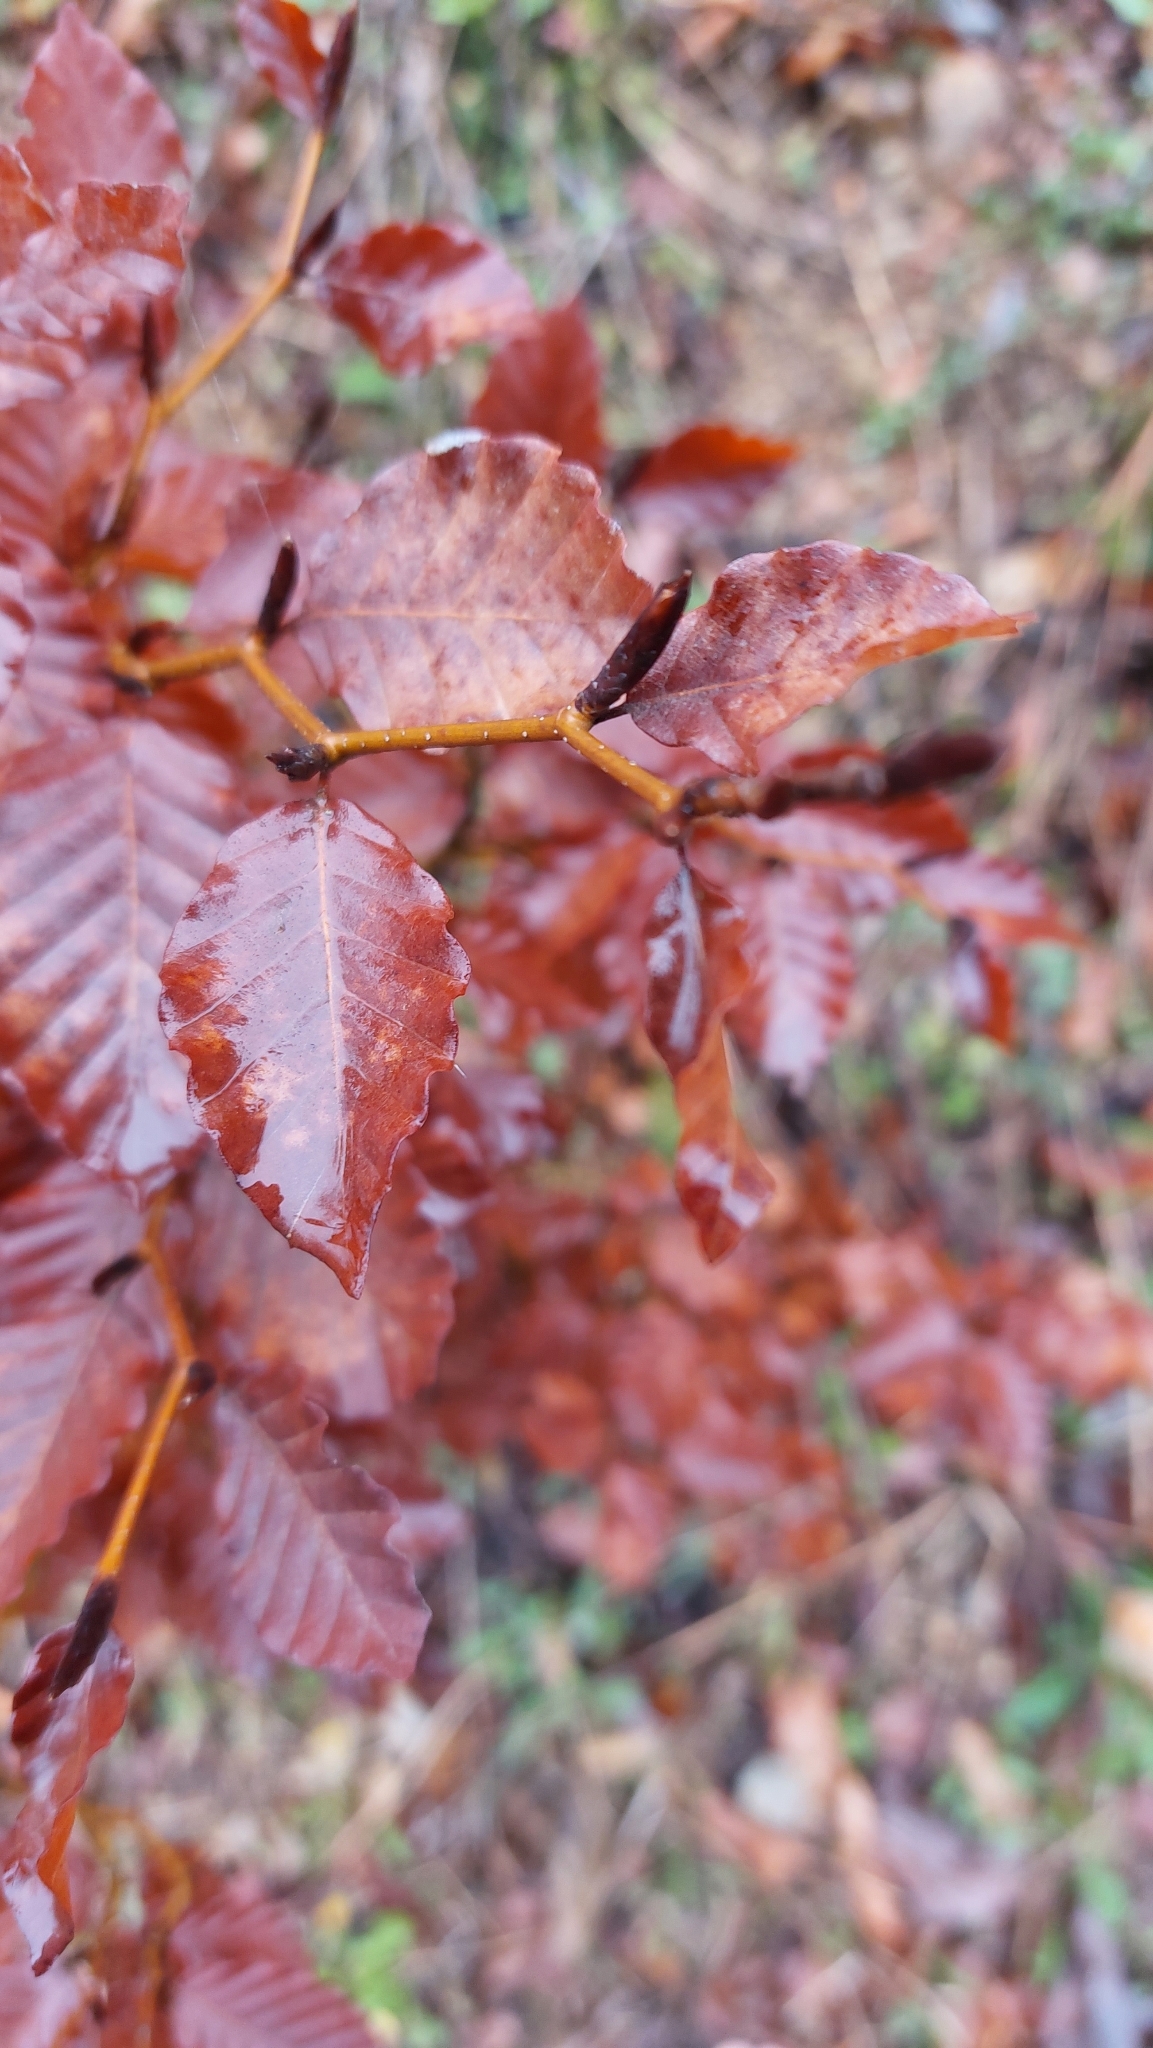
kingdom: Plantae
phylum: Tracheophyta
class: Magnoliopsida
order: Fagales
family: Fagaceae
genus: Fagus
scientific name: Fagus sylvatica
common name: Beech
